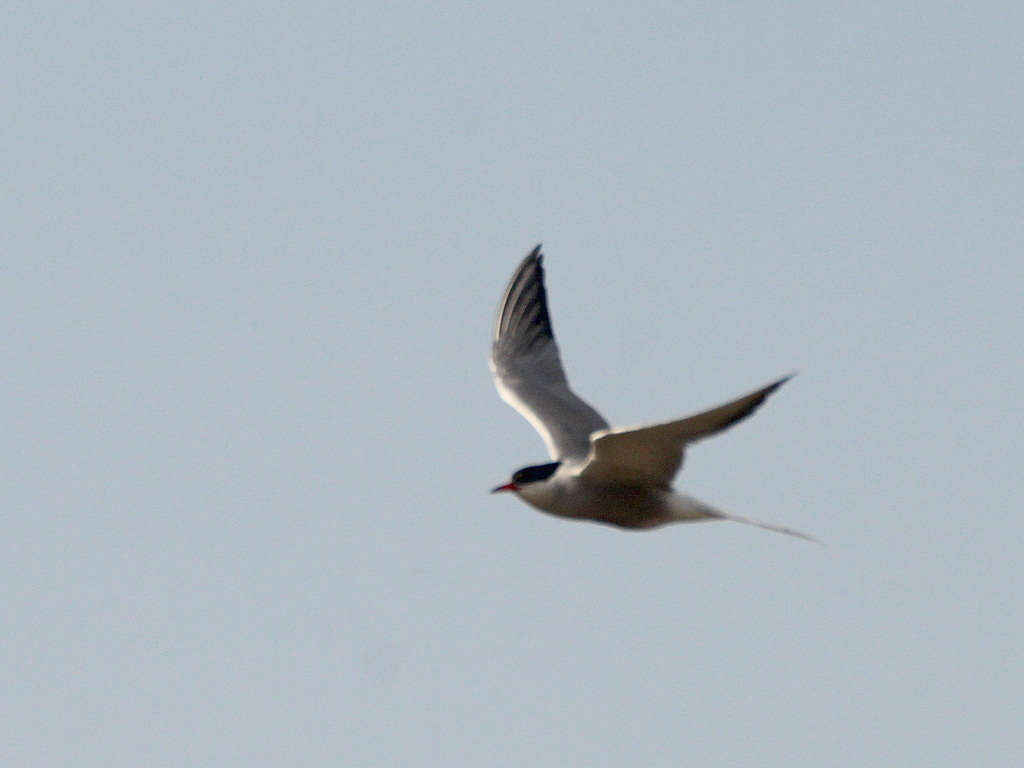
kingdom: Animalia
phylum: Chordata
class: Aves
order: Charadriiformes
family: Laridae
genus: Sterna
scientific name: Sterna hirundo
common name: Common tern
